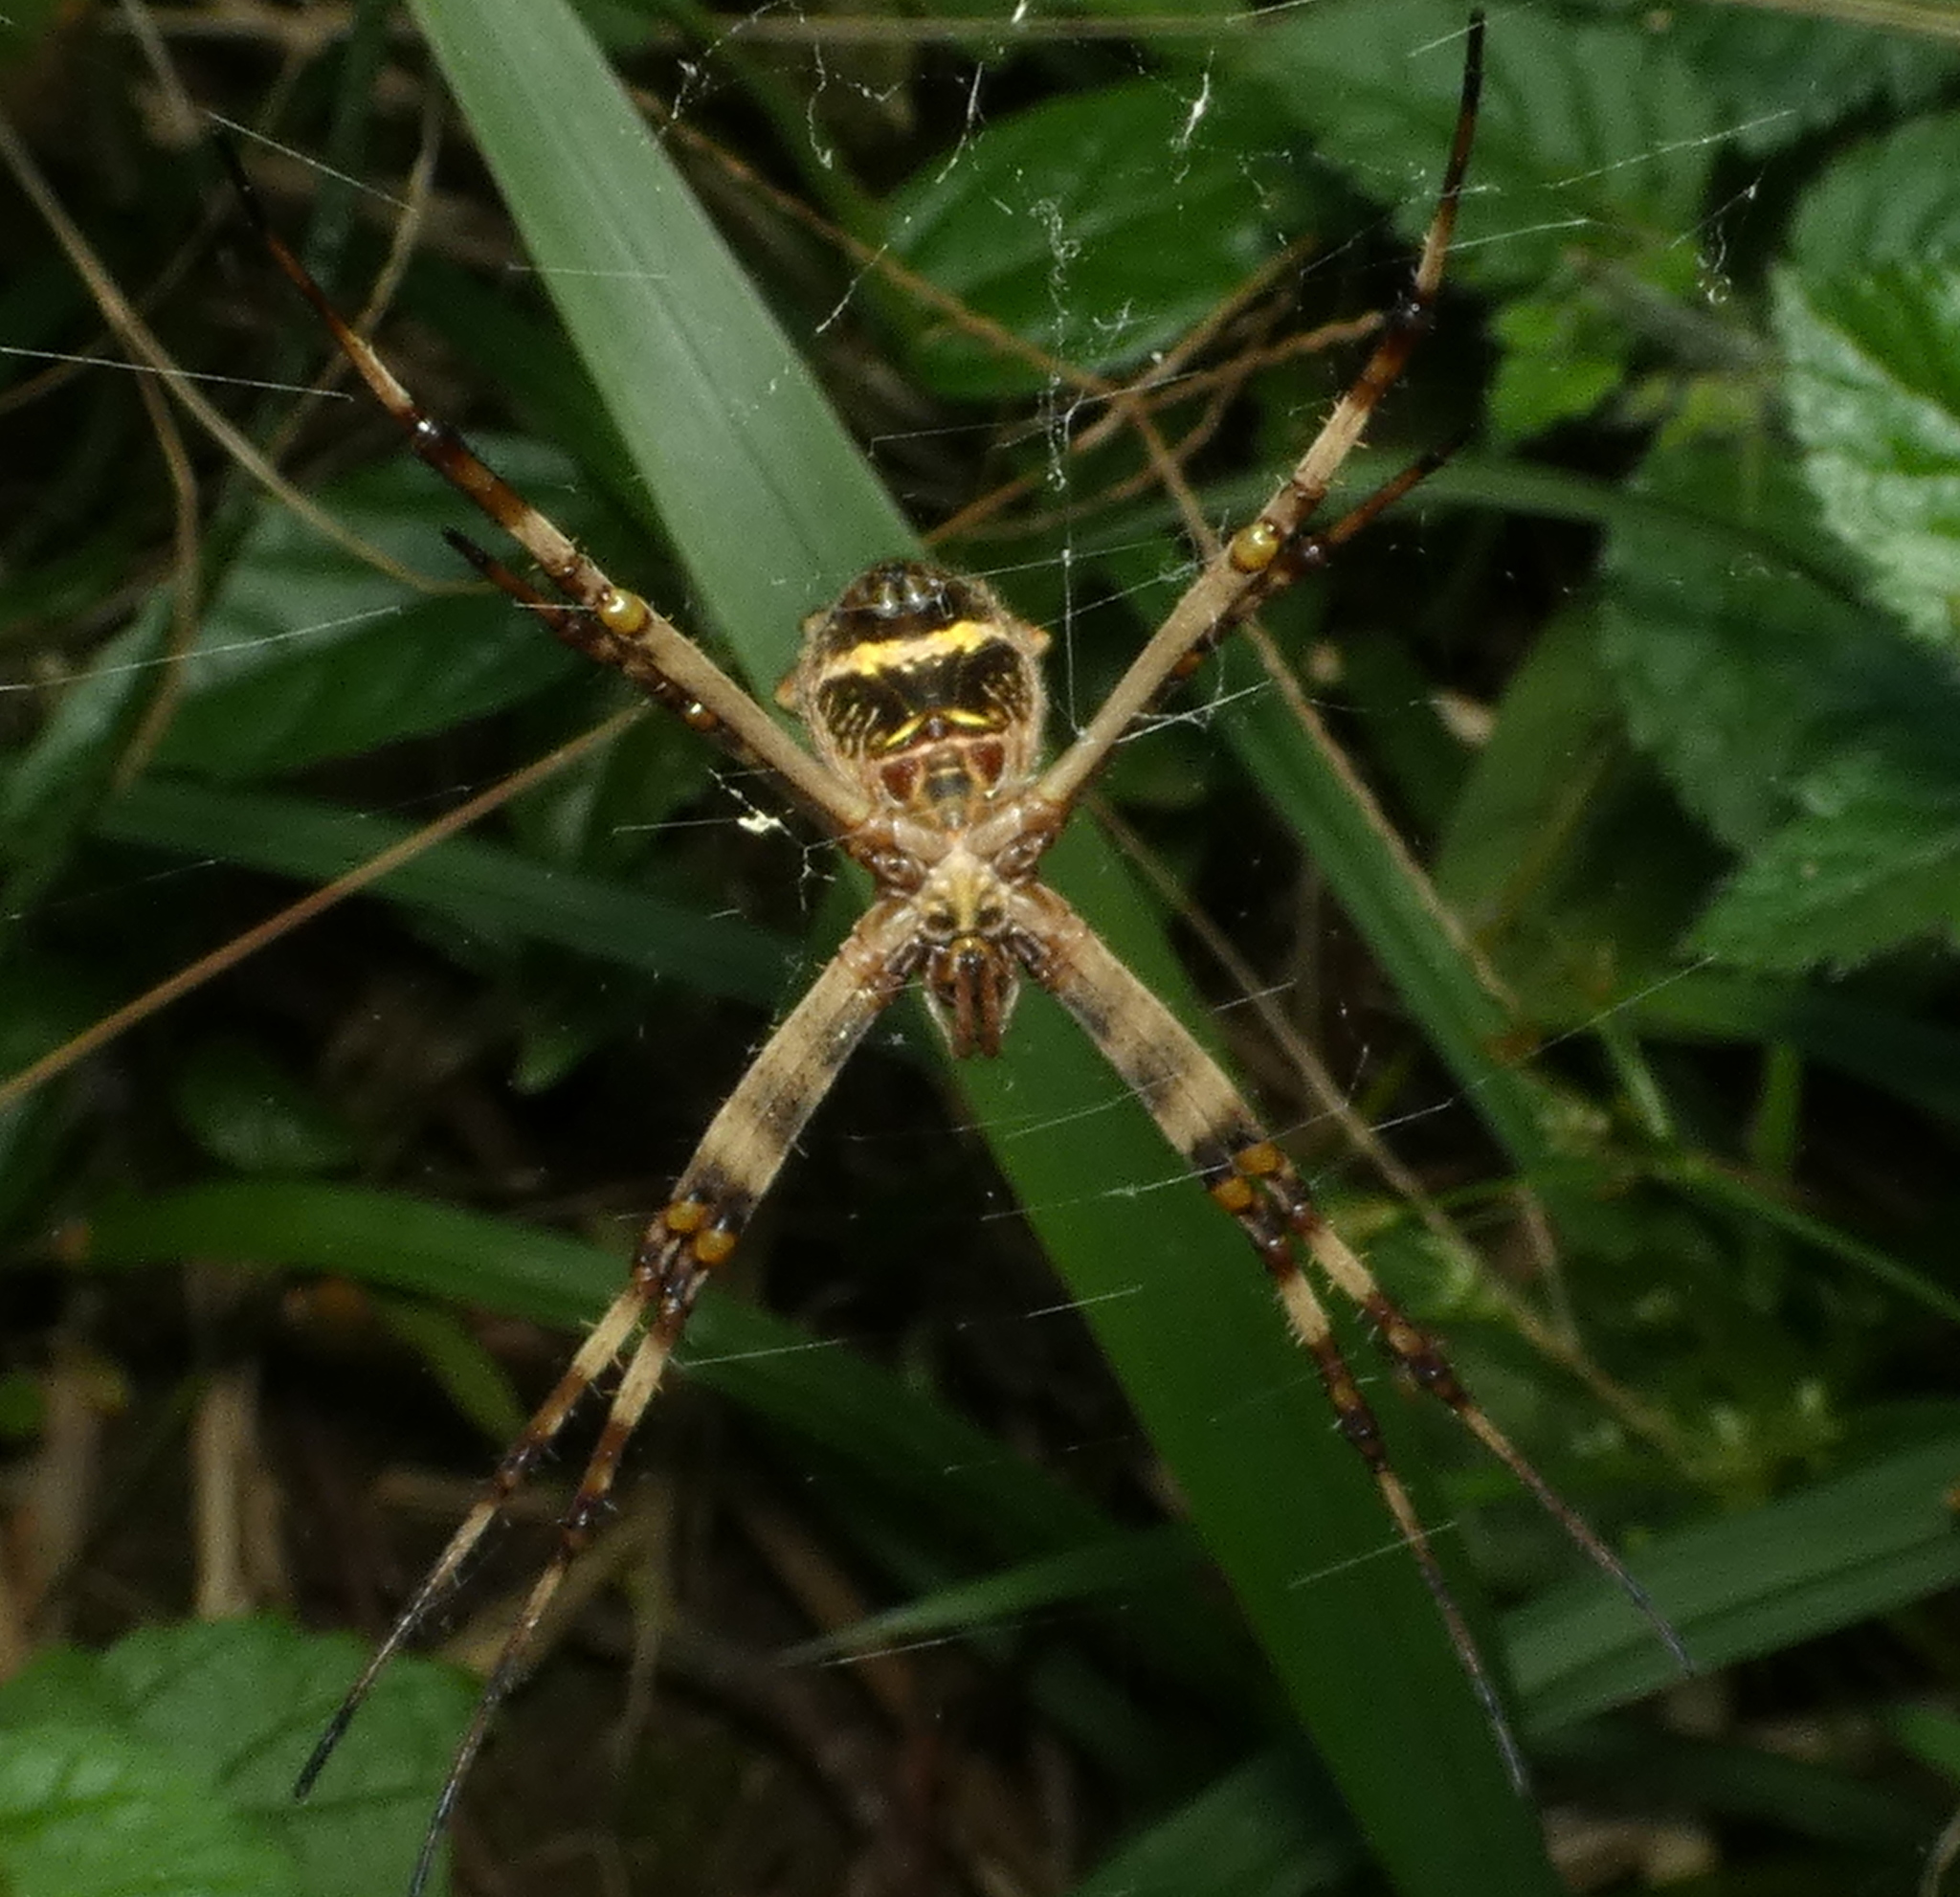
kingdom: Animalia
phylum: Arthropoda
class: Arachnida
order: Araneae
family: Araneidae
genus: Argiope
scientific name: Argiope argentata
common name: Orb weavers
